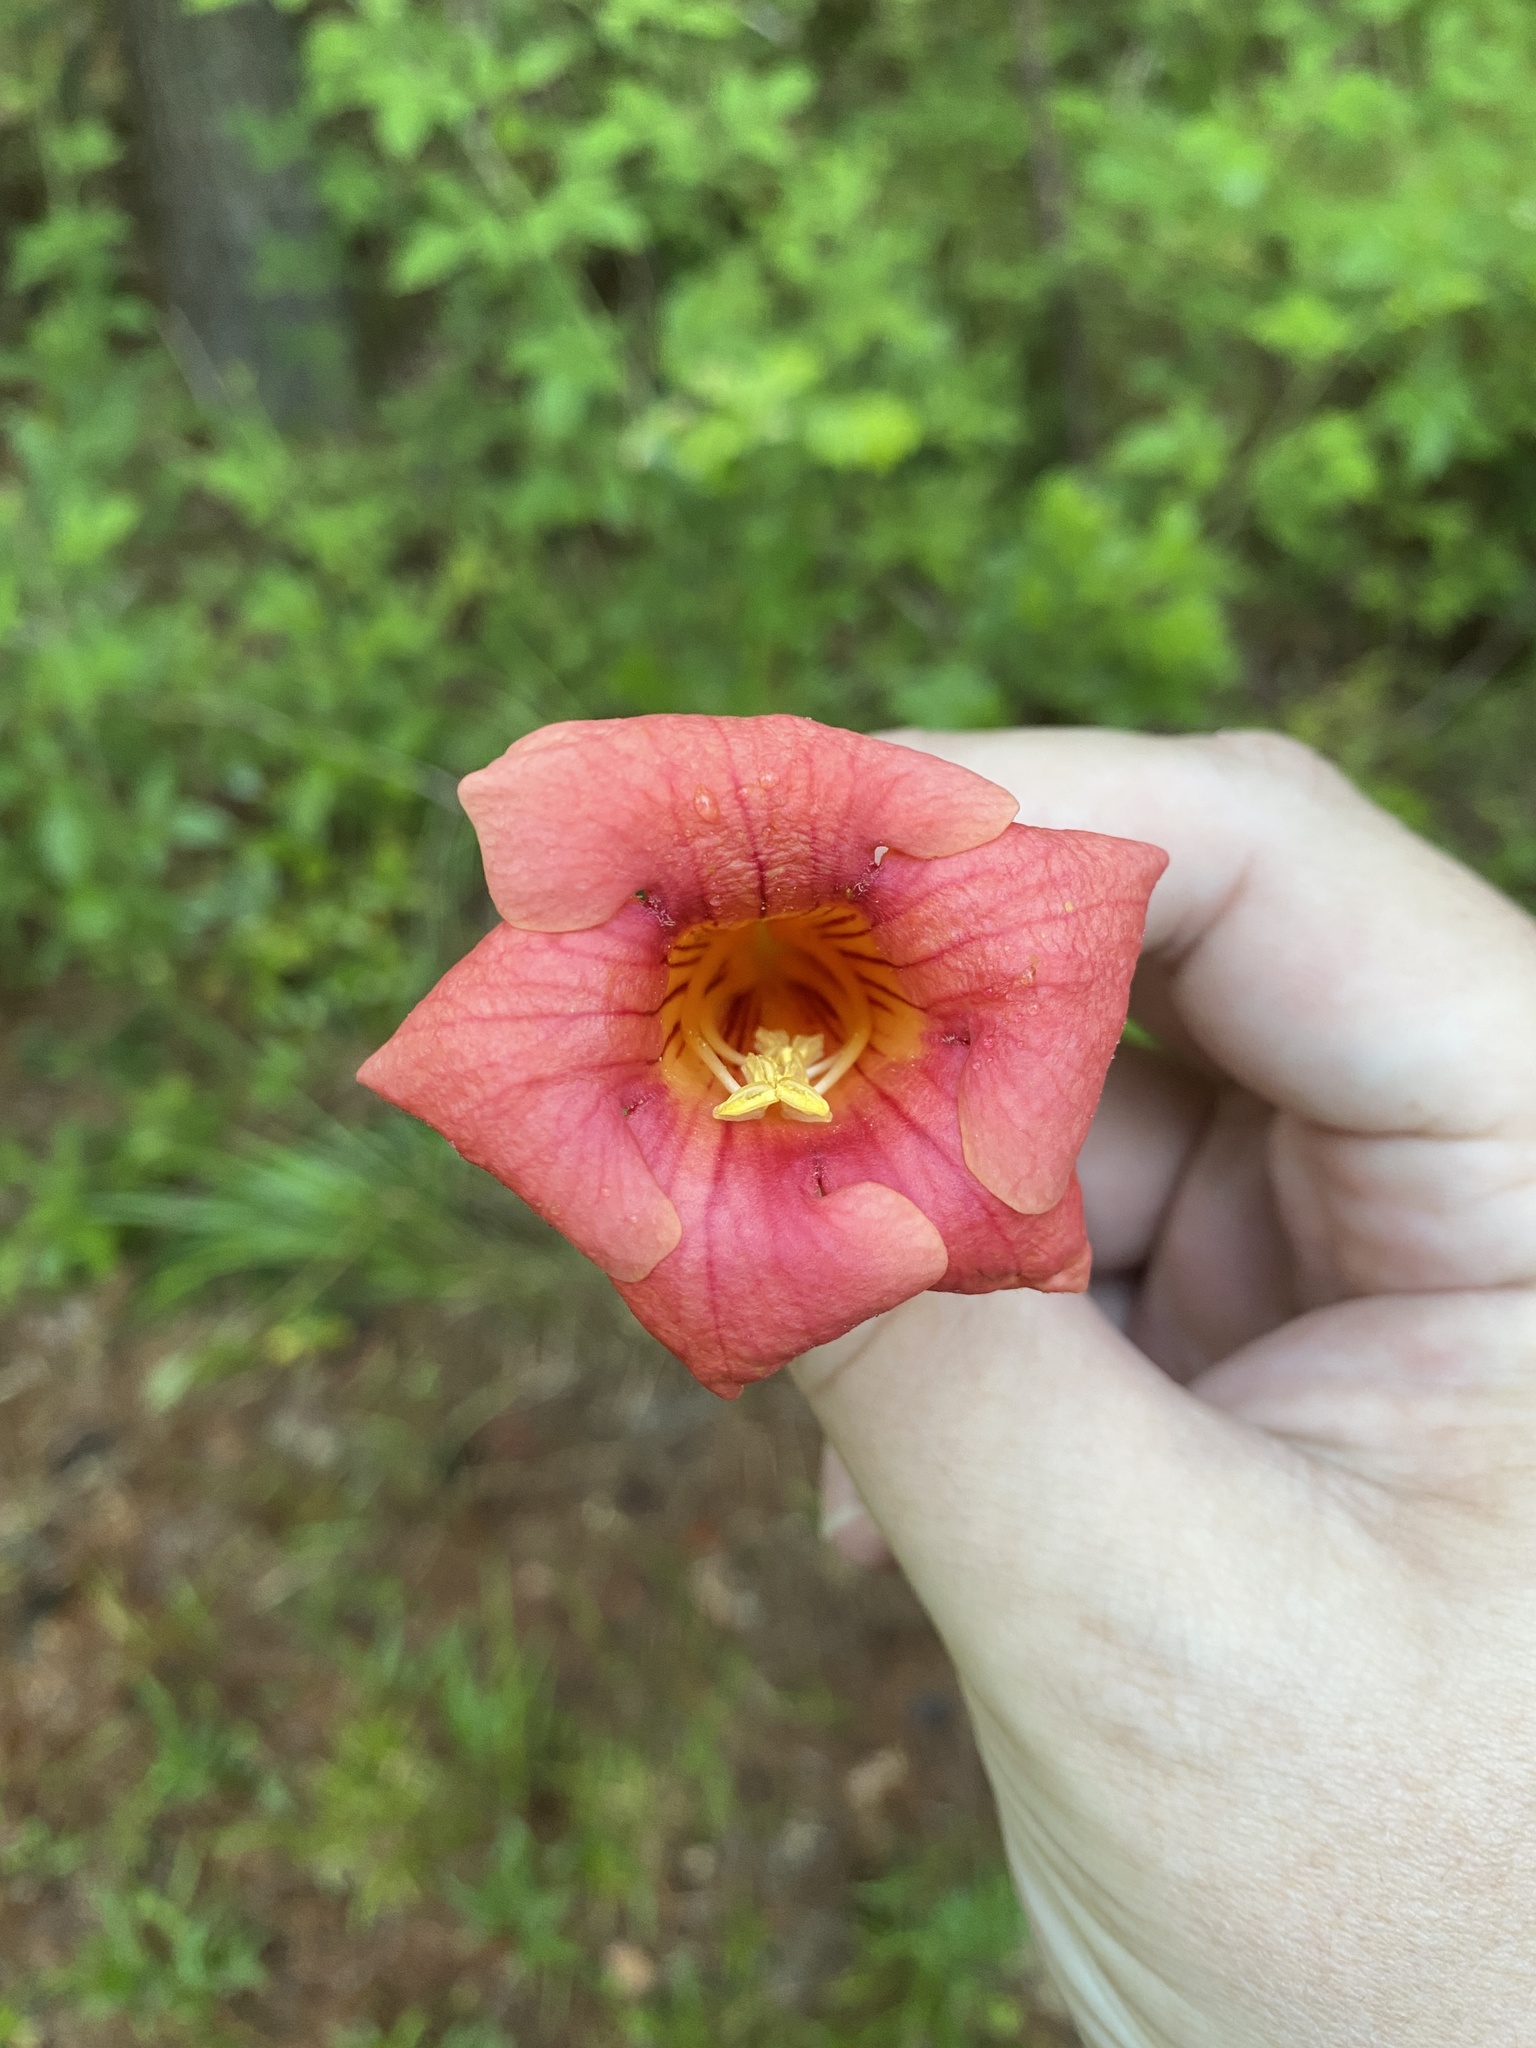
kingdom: Plantae
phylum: Tracheophyta
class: Magnoliopsida
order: Lamiales
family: Bignoniaceae
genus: Campsis
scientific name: Campsis radicans
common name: Trumpet-creeper
